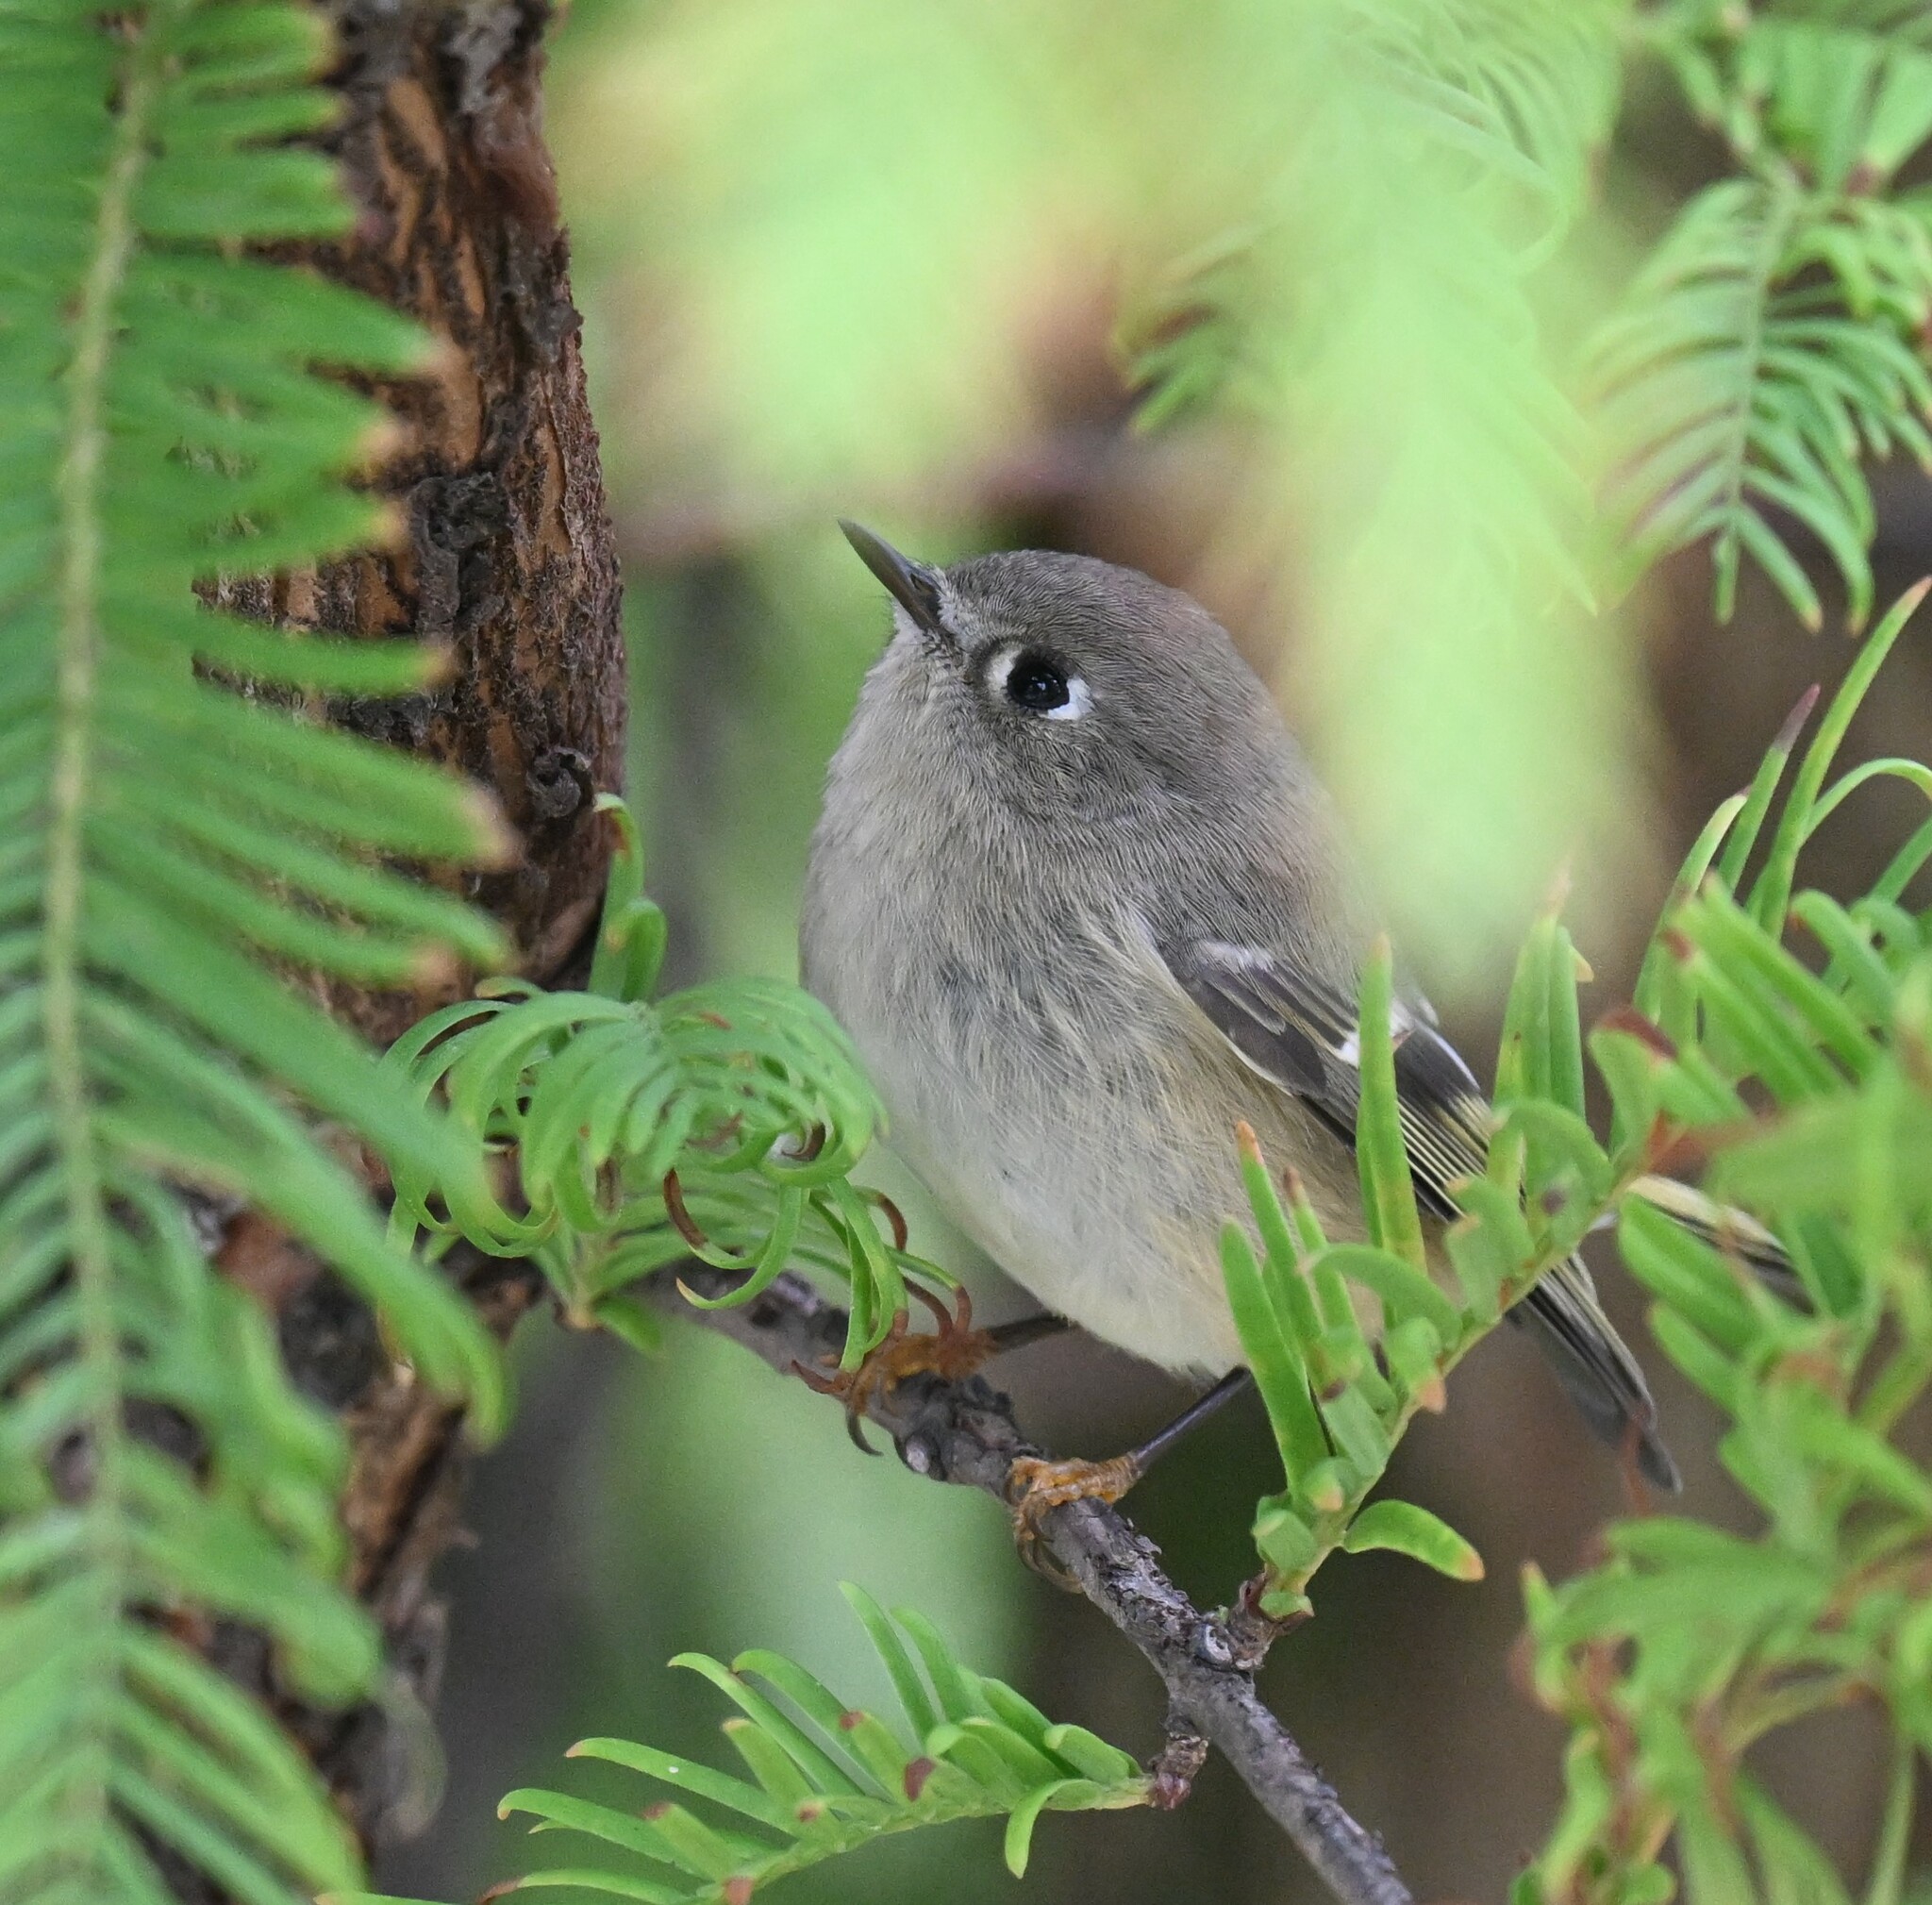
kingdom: Animalia
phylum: Chordata
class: Aves
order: Passeriformes
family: Regulidae
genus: Regulus
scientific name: Regulus calendula
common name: Ruby-crowned kinglet
